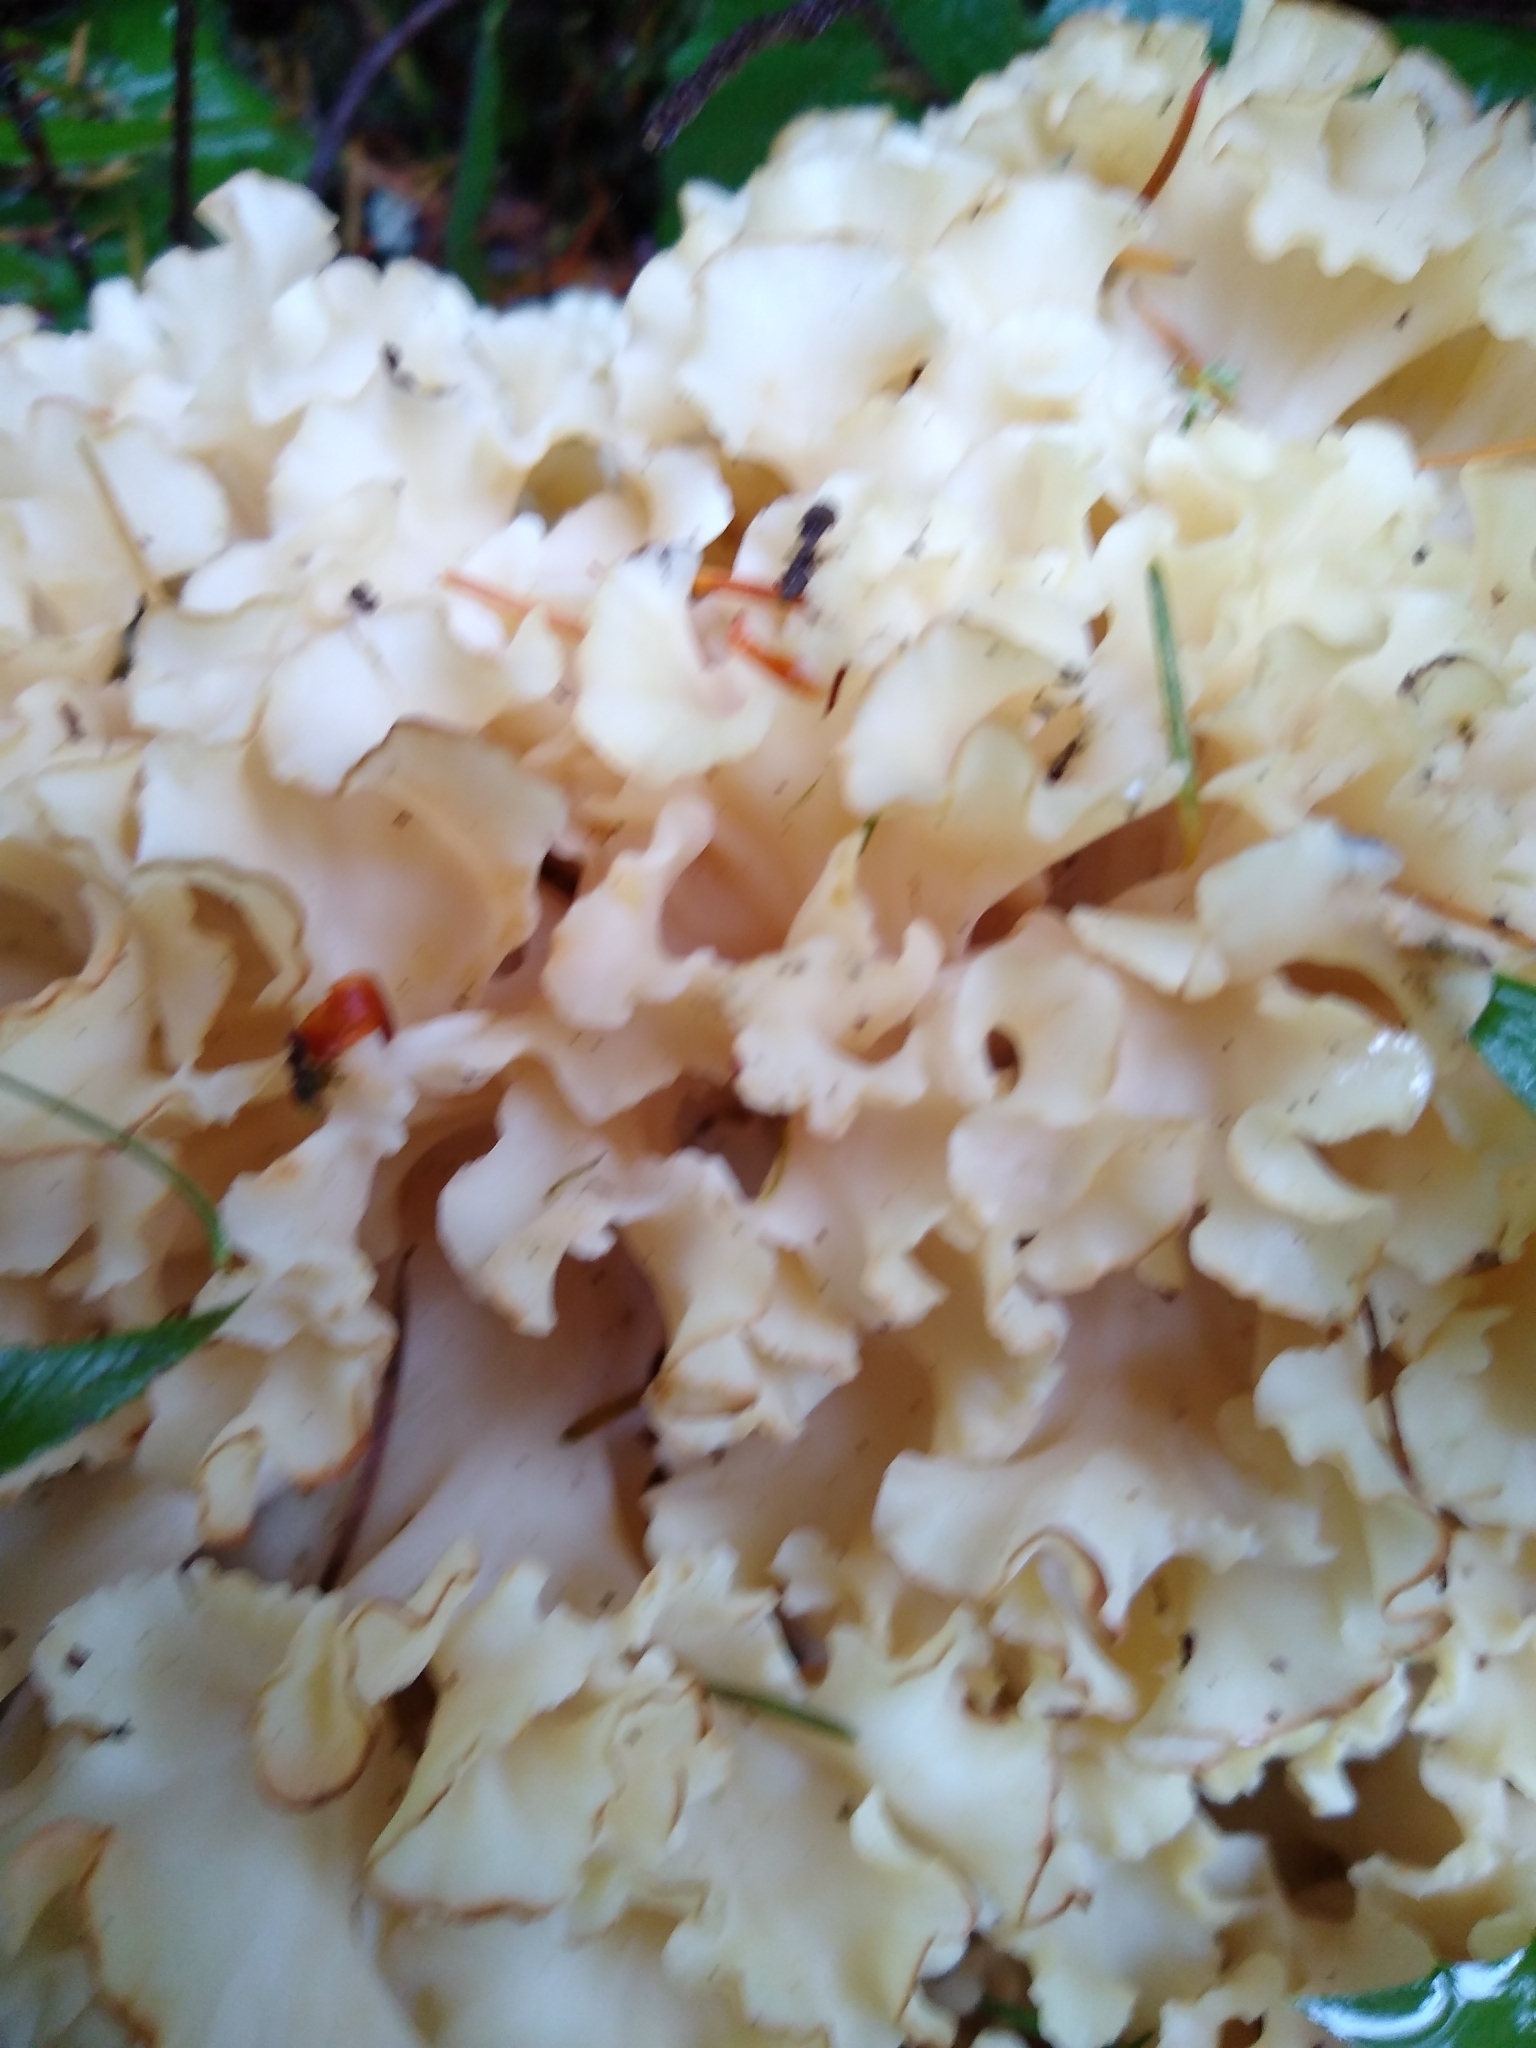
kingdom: Fungi
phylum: Basidiomycota
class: Agaricomycetes
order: Polyporales
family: Sparassidaceae
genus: Sparassis
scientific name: Sparassis radicata
